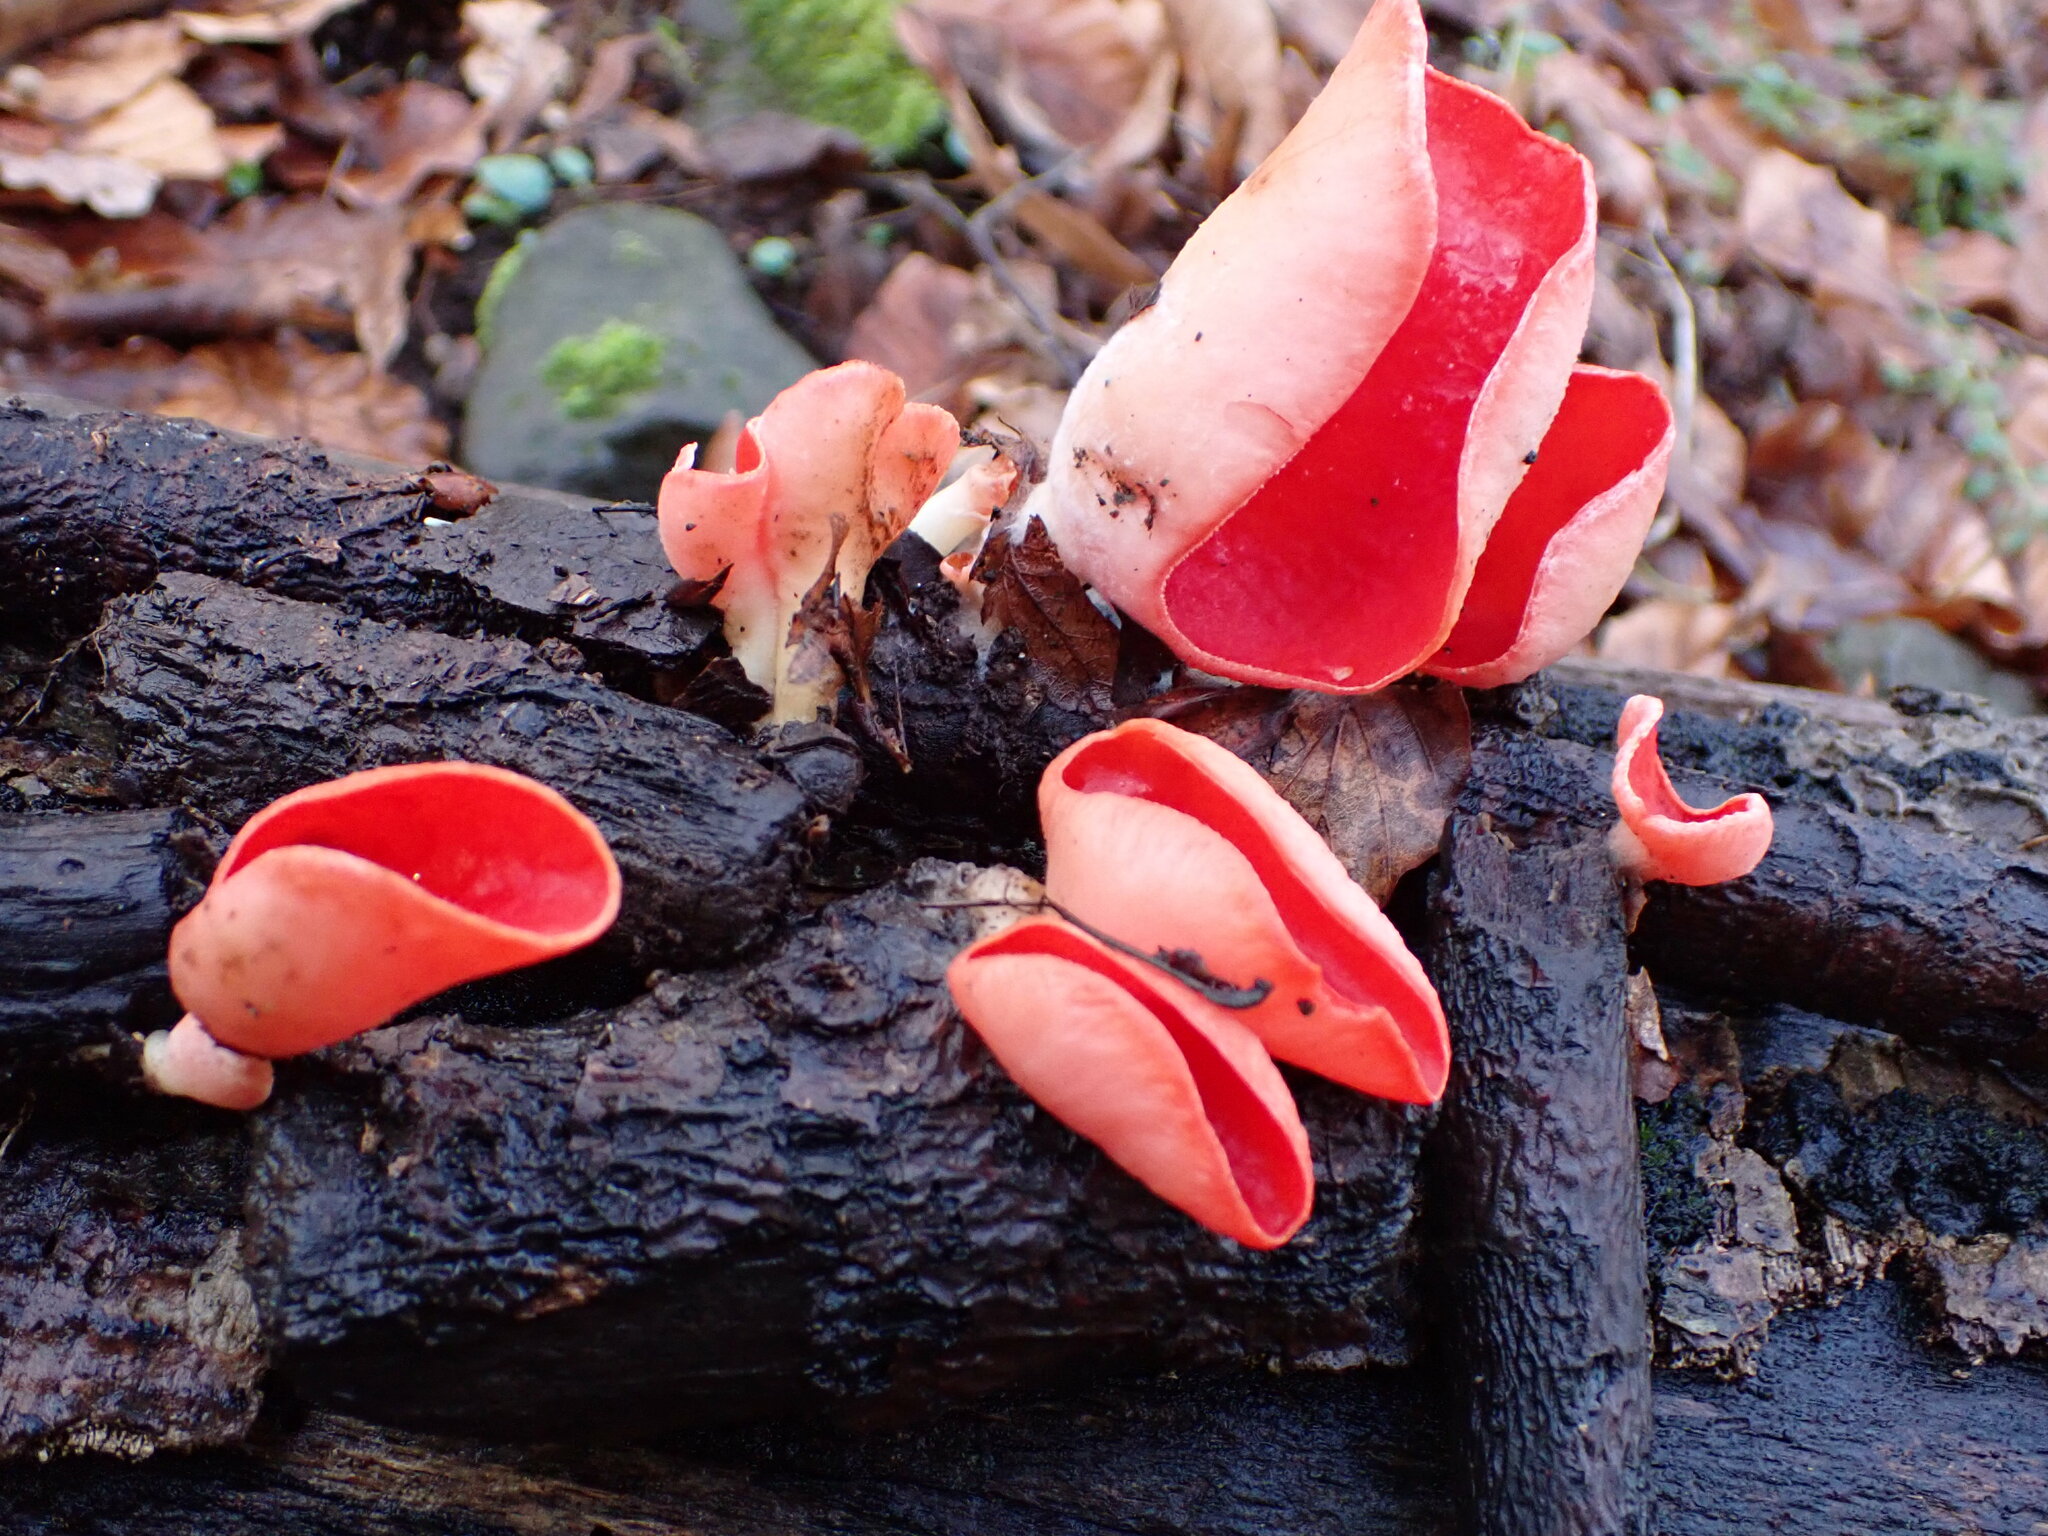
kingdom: Fungi
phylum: Ascomycota
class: Pezizomycetes
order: Pezizales
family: Sarcoscyphaceae
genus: Sarcoscypha
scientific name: Sarcoscypha jurana
